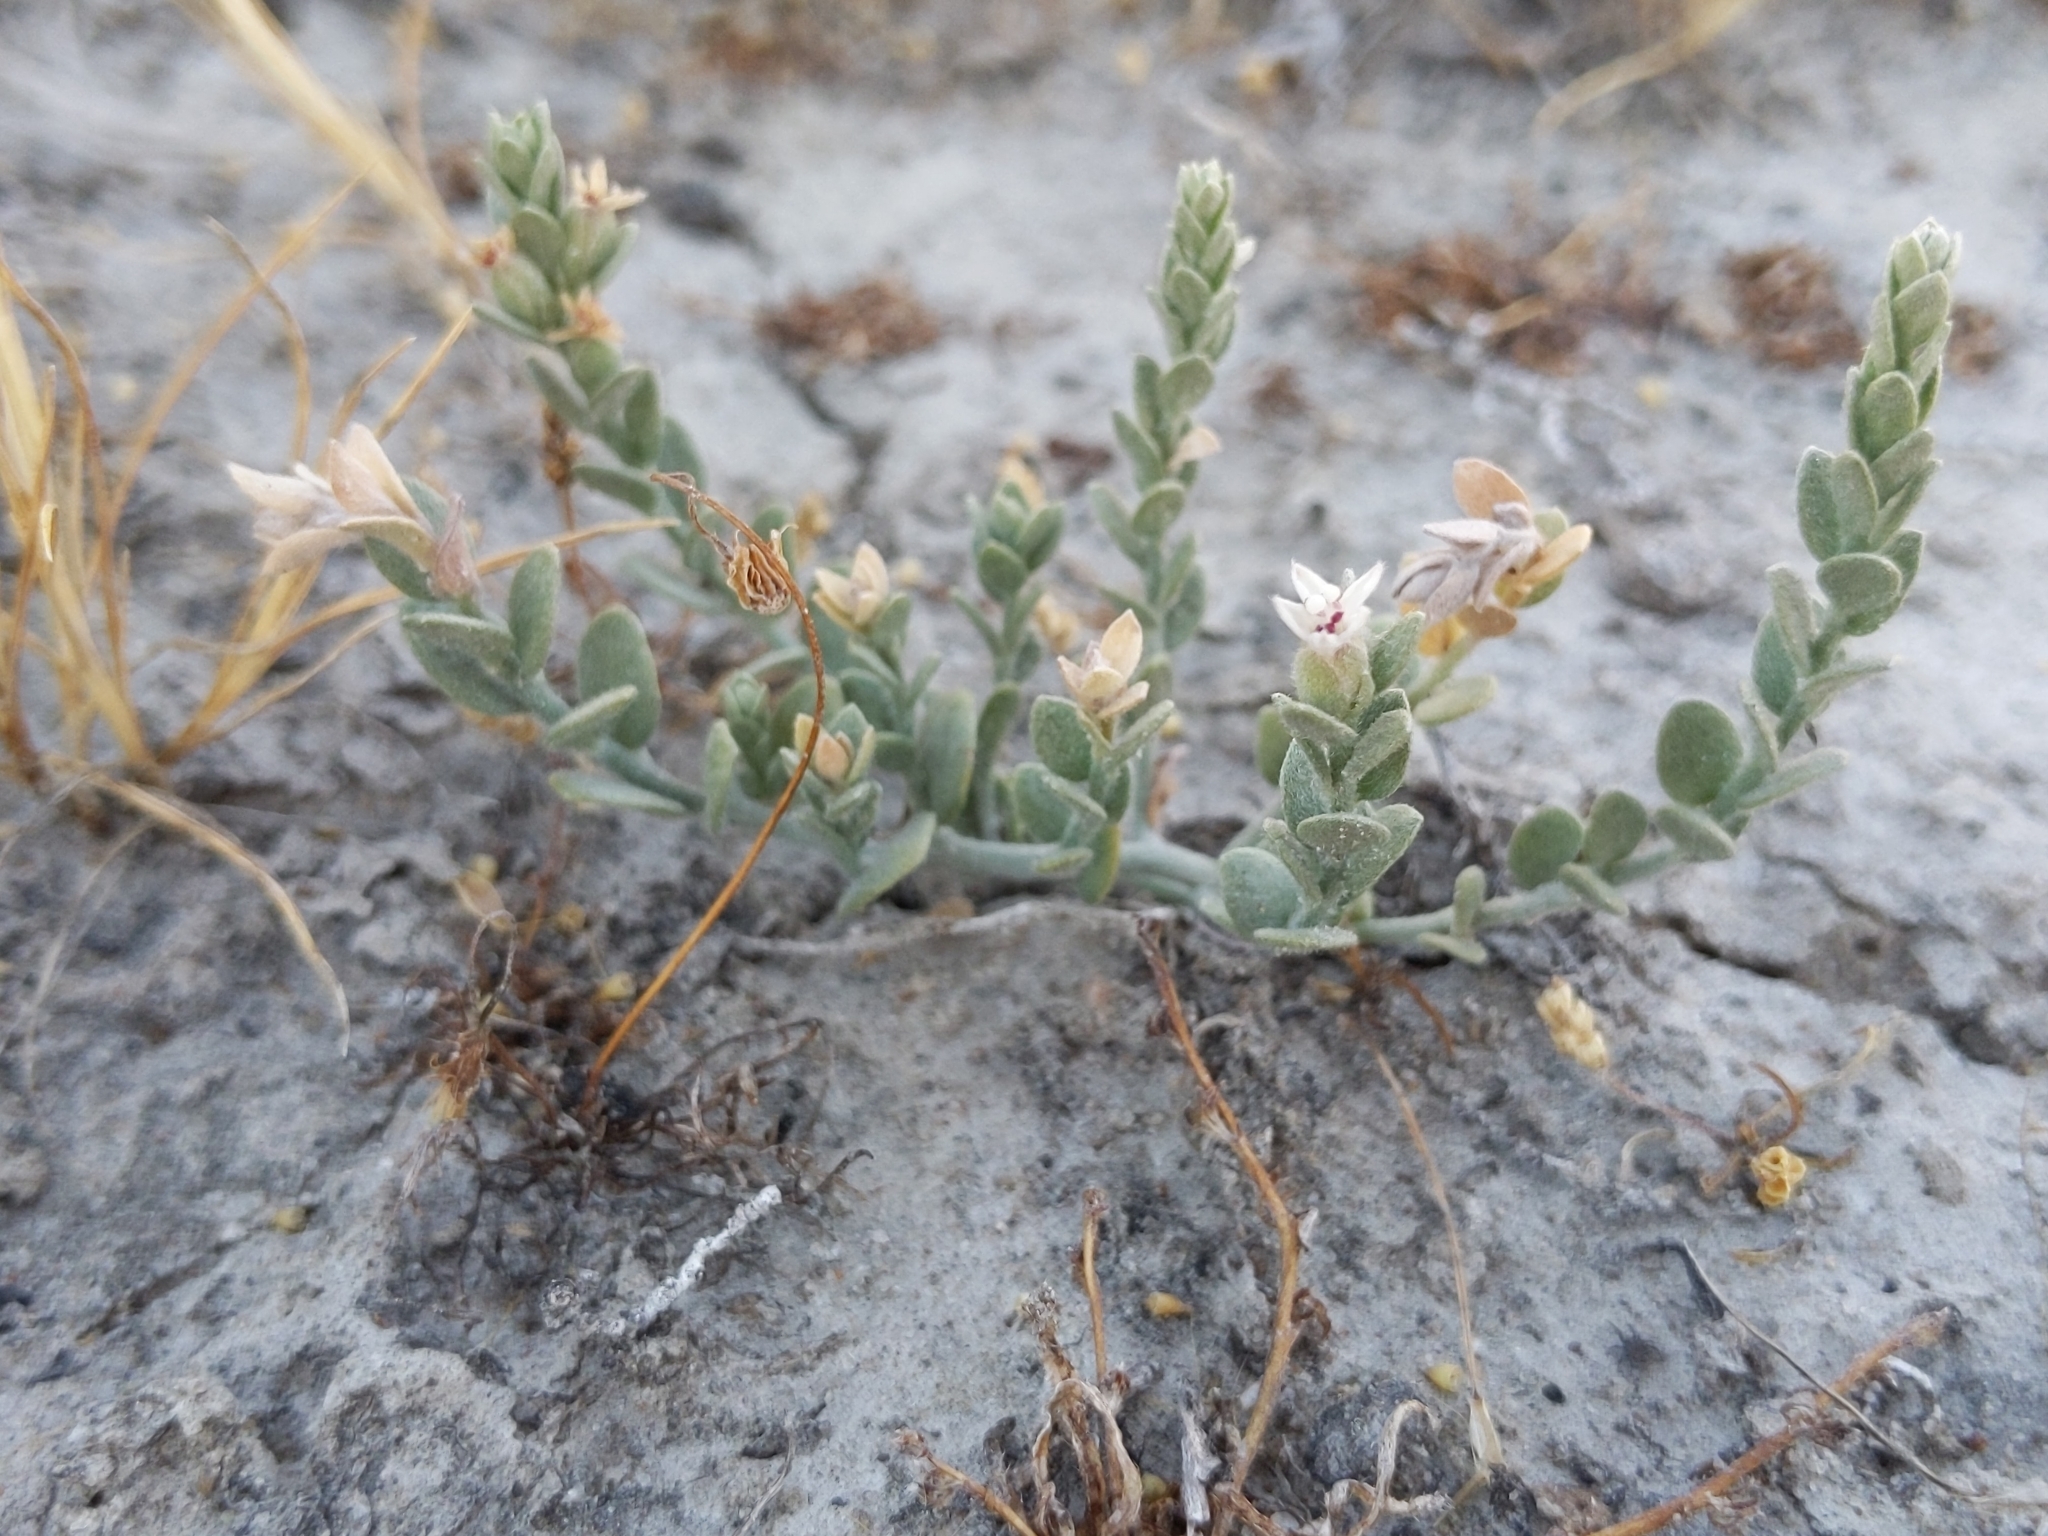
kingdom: Plantae
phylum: Tracheophyta
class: Magnoliopsida
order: Solanales
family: Convolvulaceae
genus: Cressa
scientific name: Cressa truxillensis
